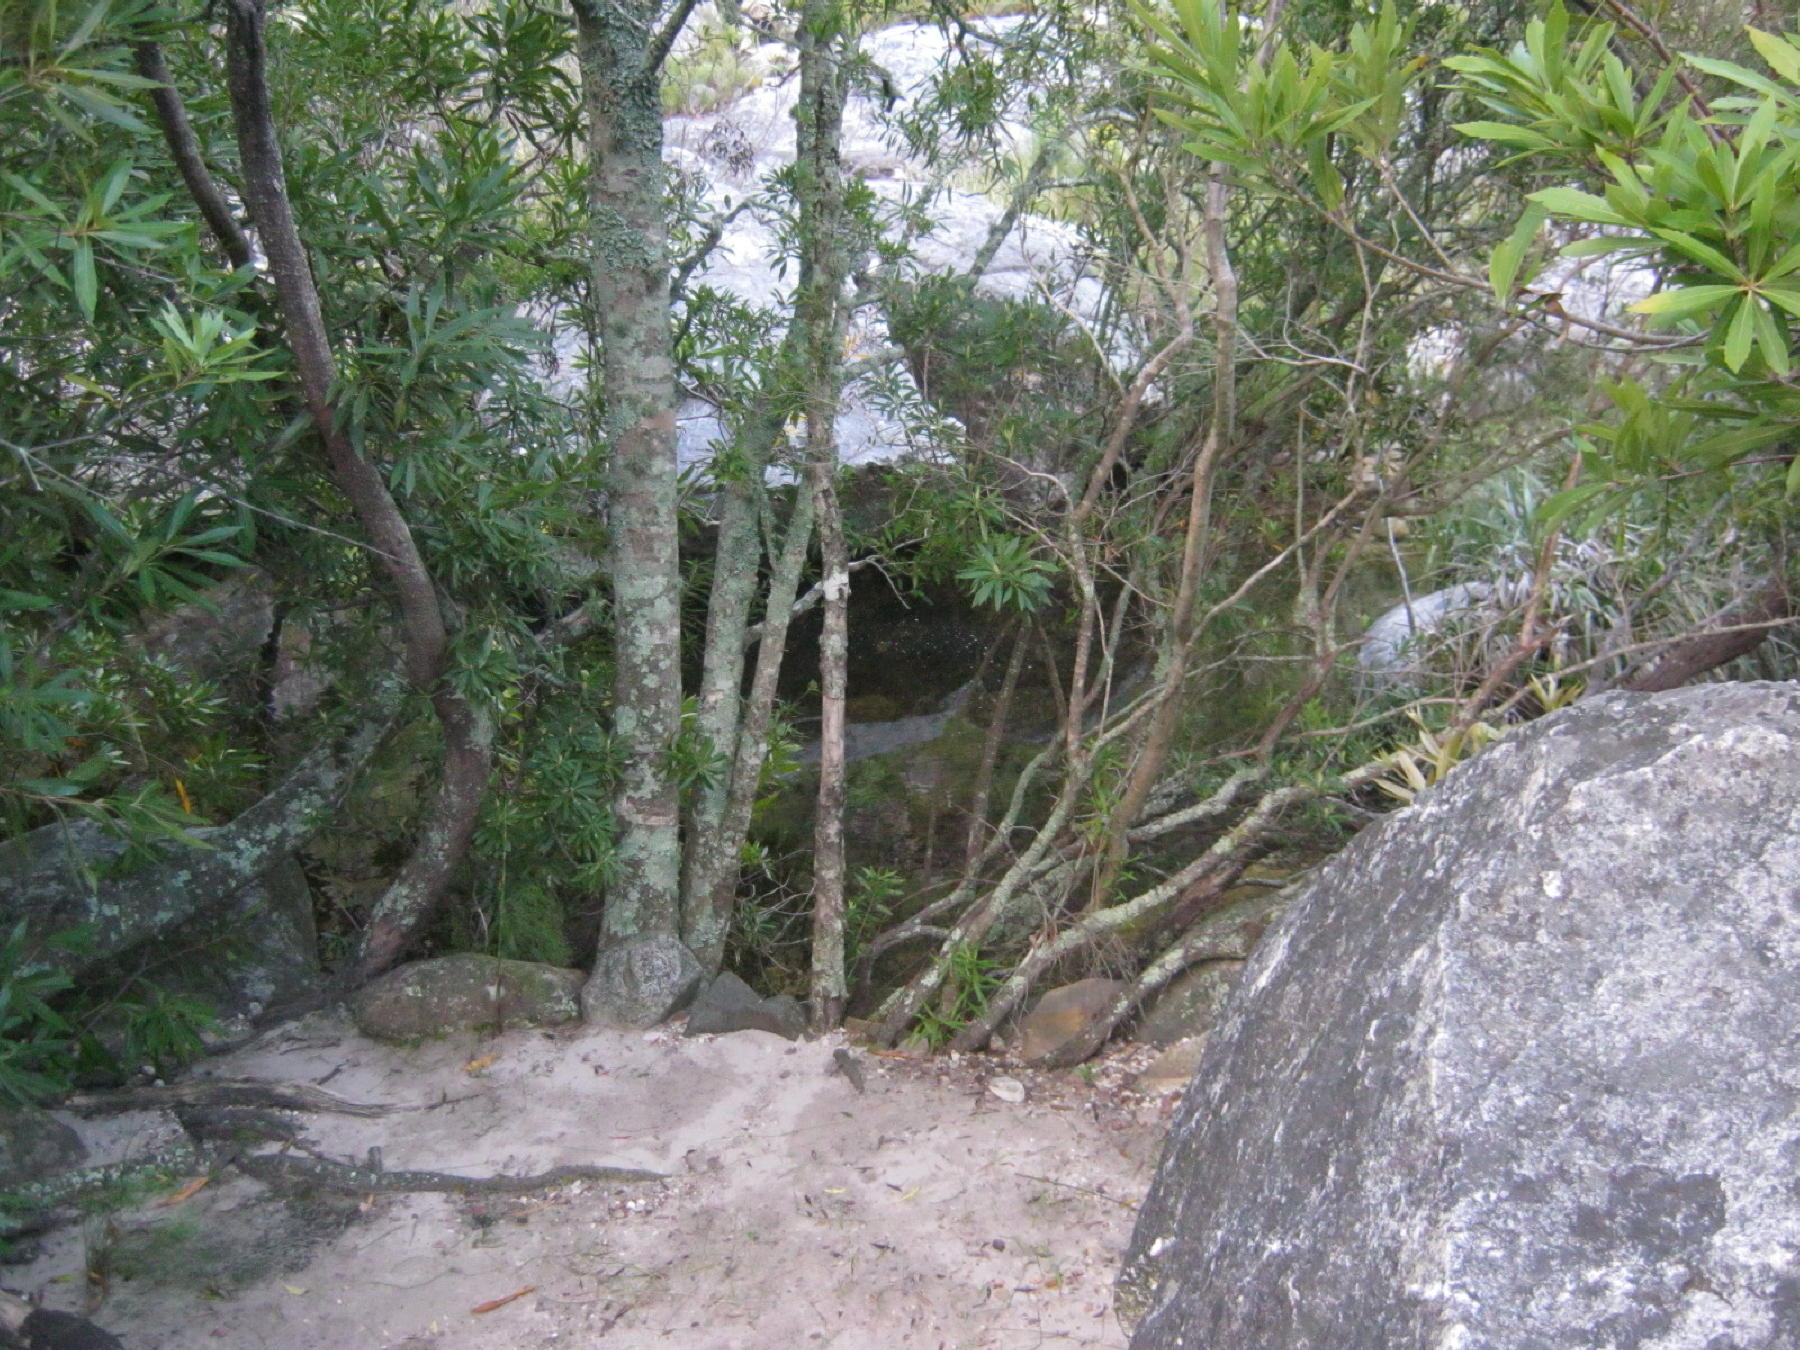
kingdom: Plantae
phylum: Tracheophyta
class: Magnoliopsida
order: Proteales
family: Proteaceae
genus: Brabejum
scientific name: Brabejum stellatifolium
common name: Wild almond
